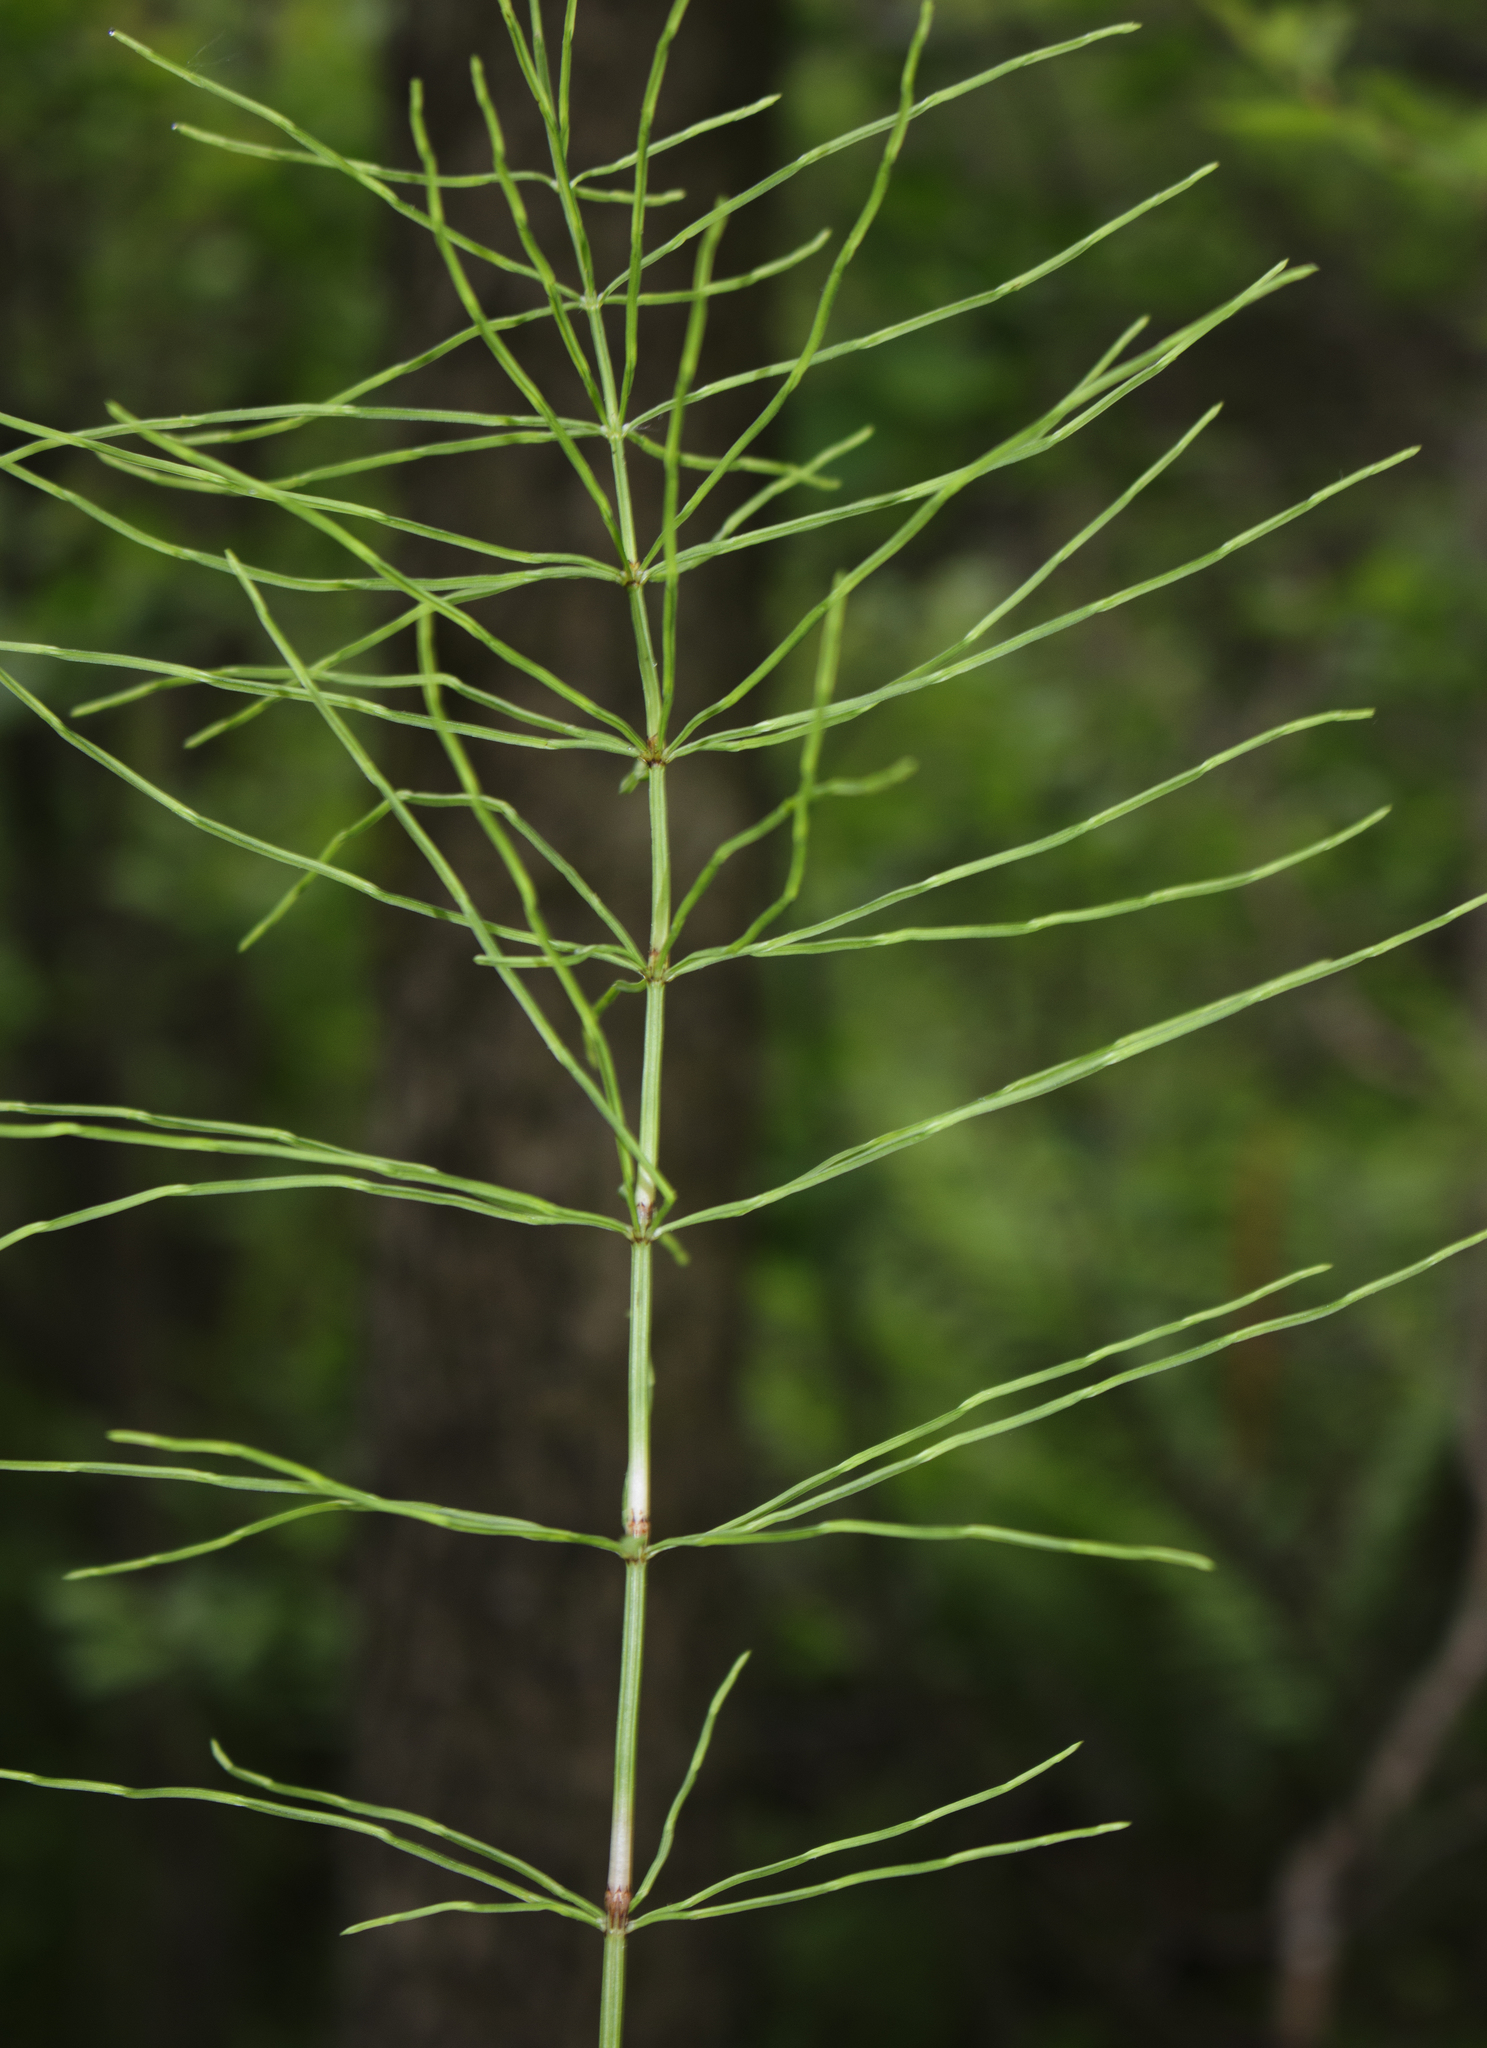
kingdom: Plantae
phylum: Tracheophyta
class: Polypodiopsida
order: Equisetales
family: Equisetaceae
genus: Equisetum
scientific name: Equisetum arvense
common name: Field horsetail
